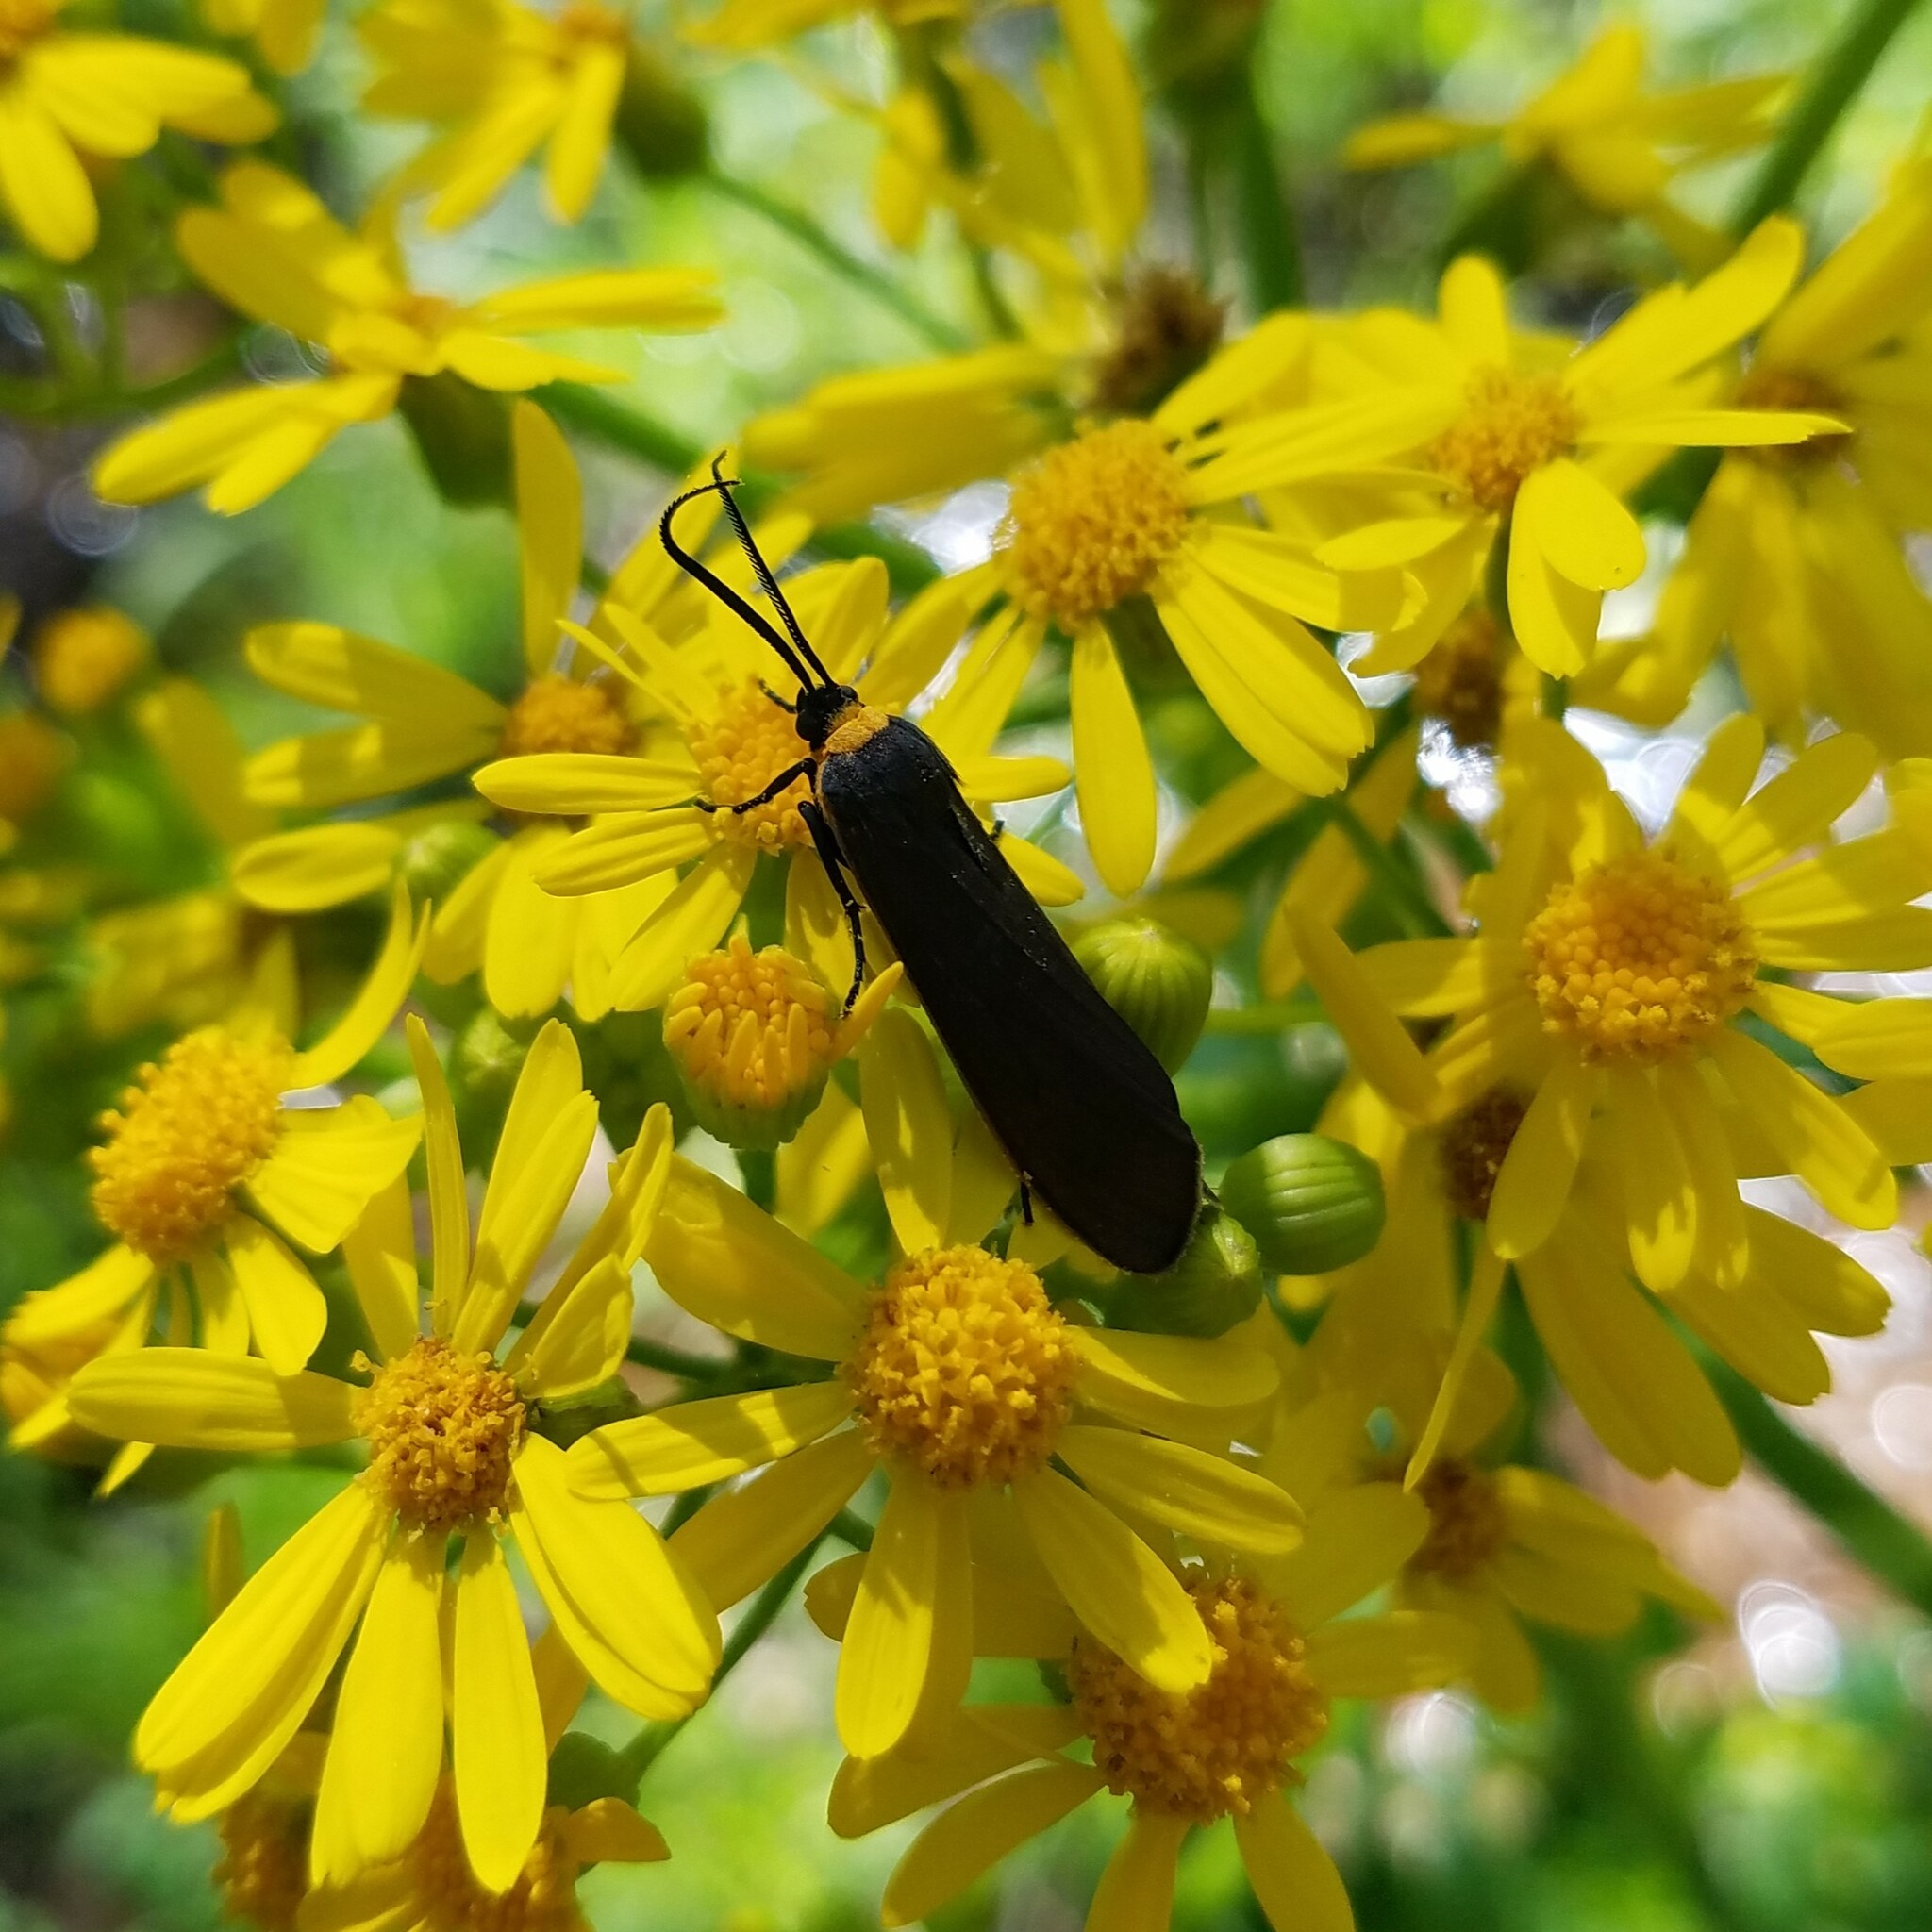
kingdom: Animalia
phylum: Arthropoda
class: Insecta
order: Lepidoptera
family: Erebidae
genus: Cisseps
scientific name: Cisseps fulvicollis
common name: Yellow-collared scape moth
